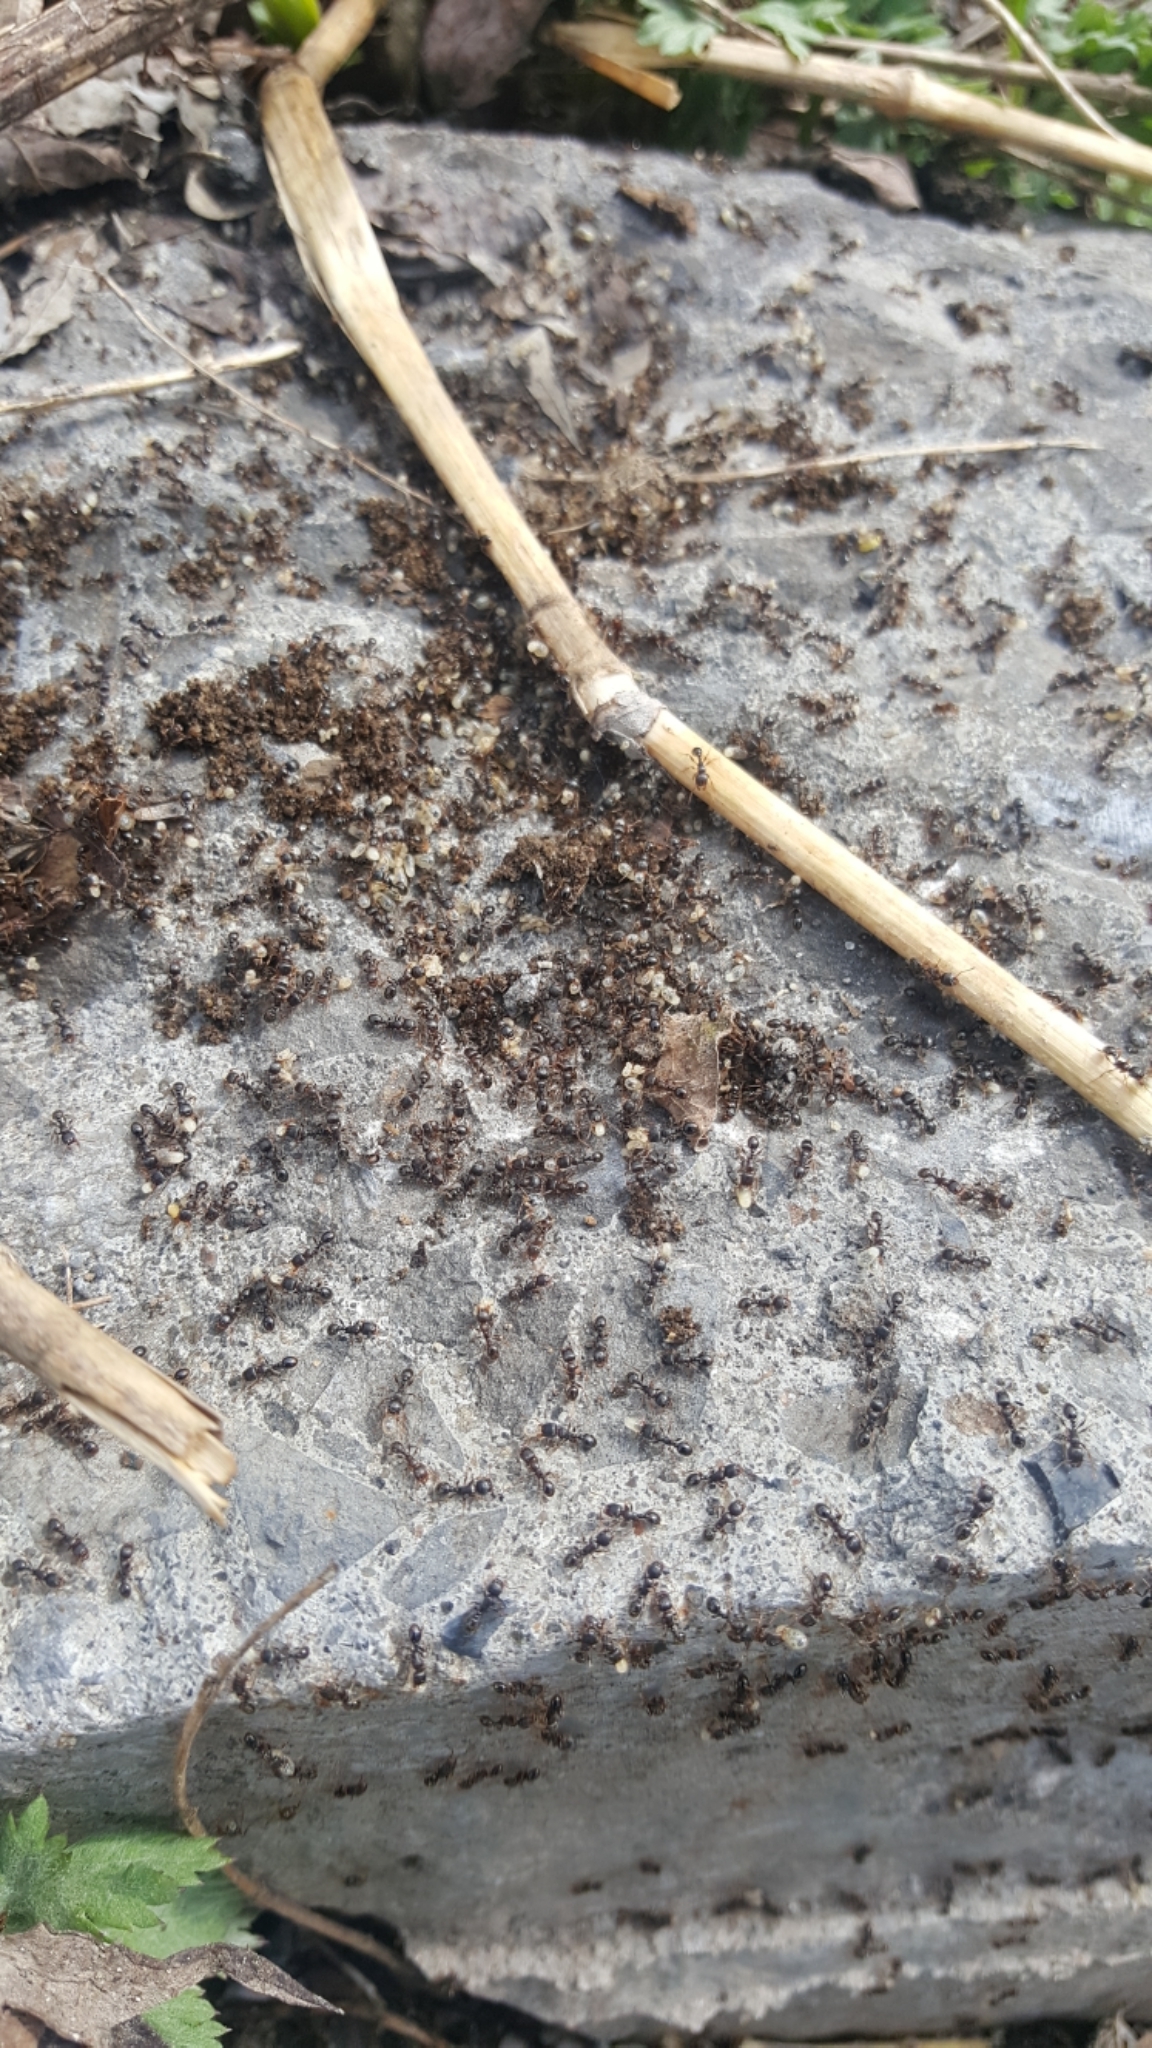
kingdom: Animalia
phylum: Arthropoda
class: Insecta
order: Hymenoptera
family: Formicidae
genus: Tetramorium
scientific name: Tetramorium immigrans
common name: Pavement ant
